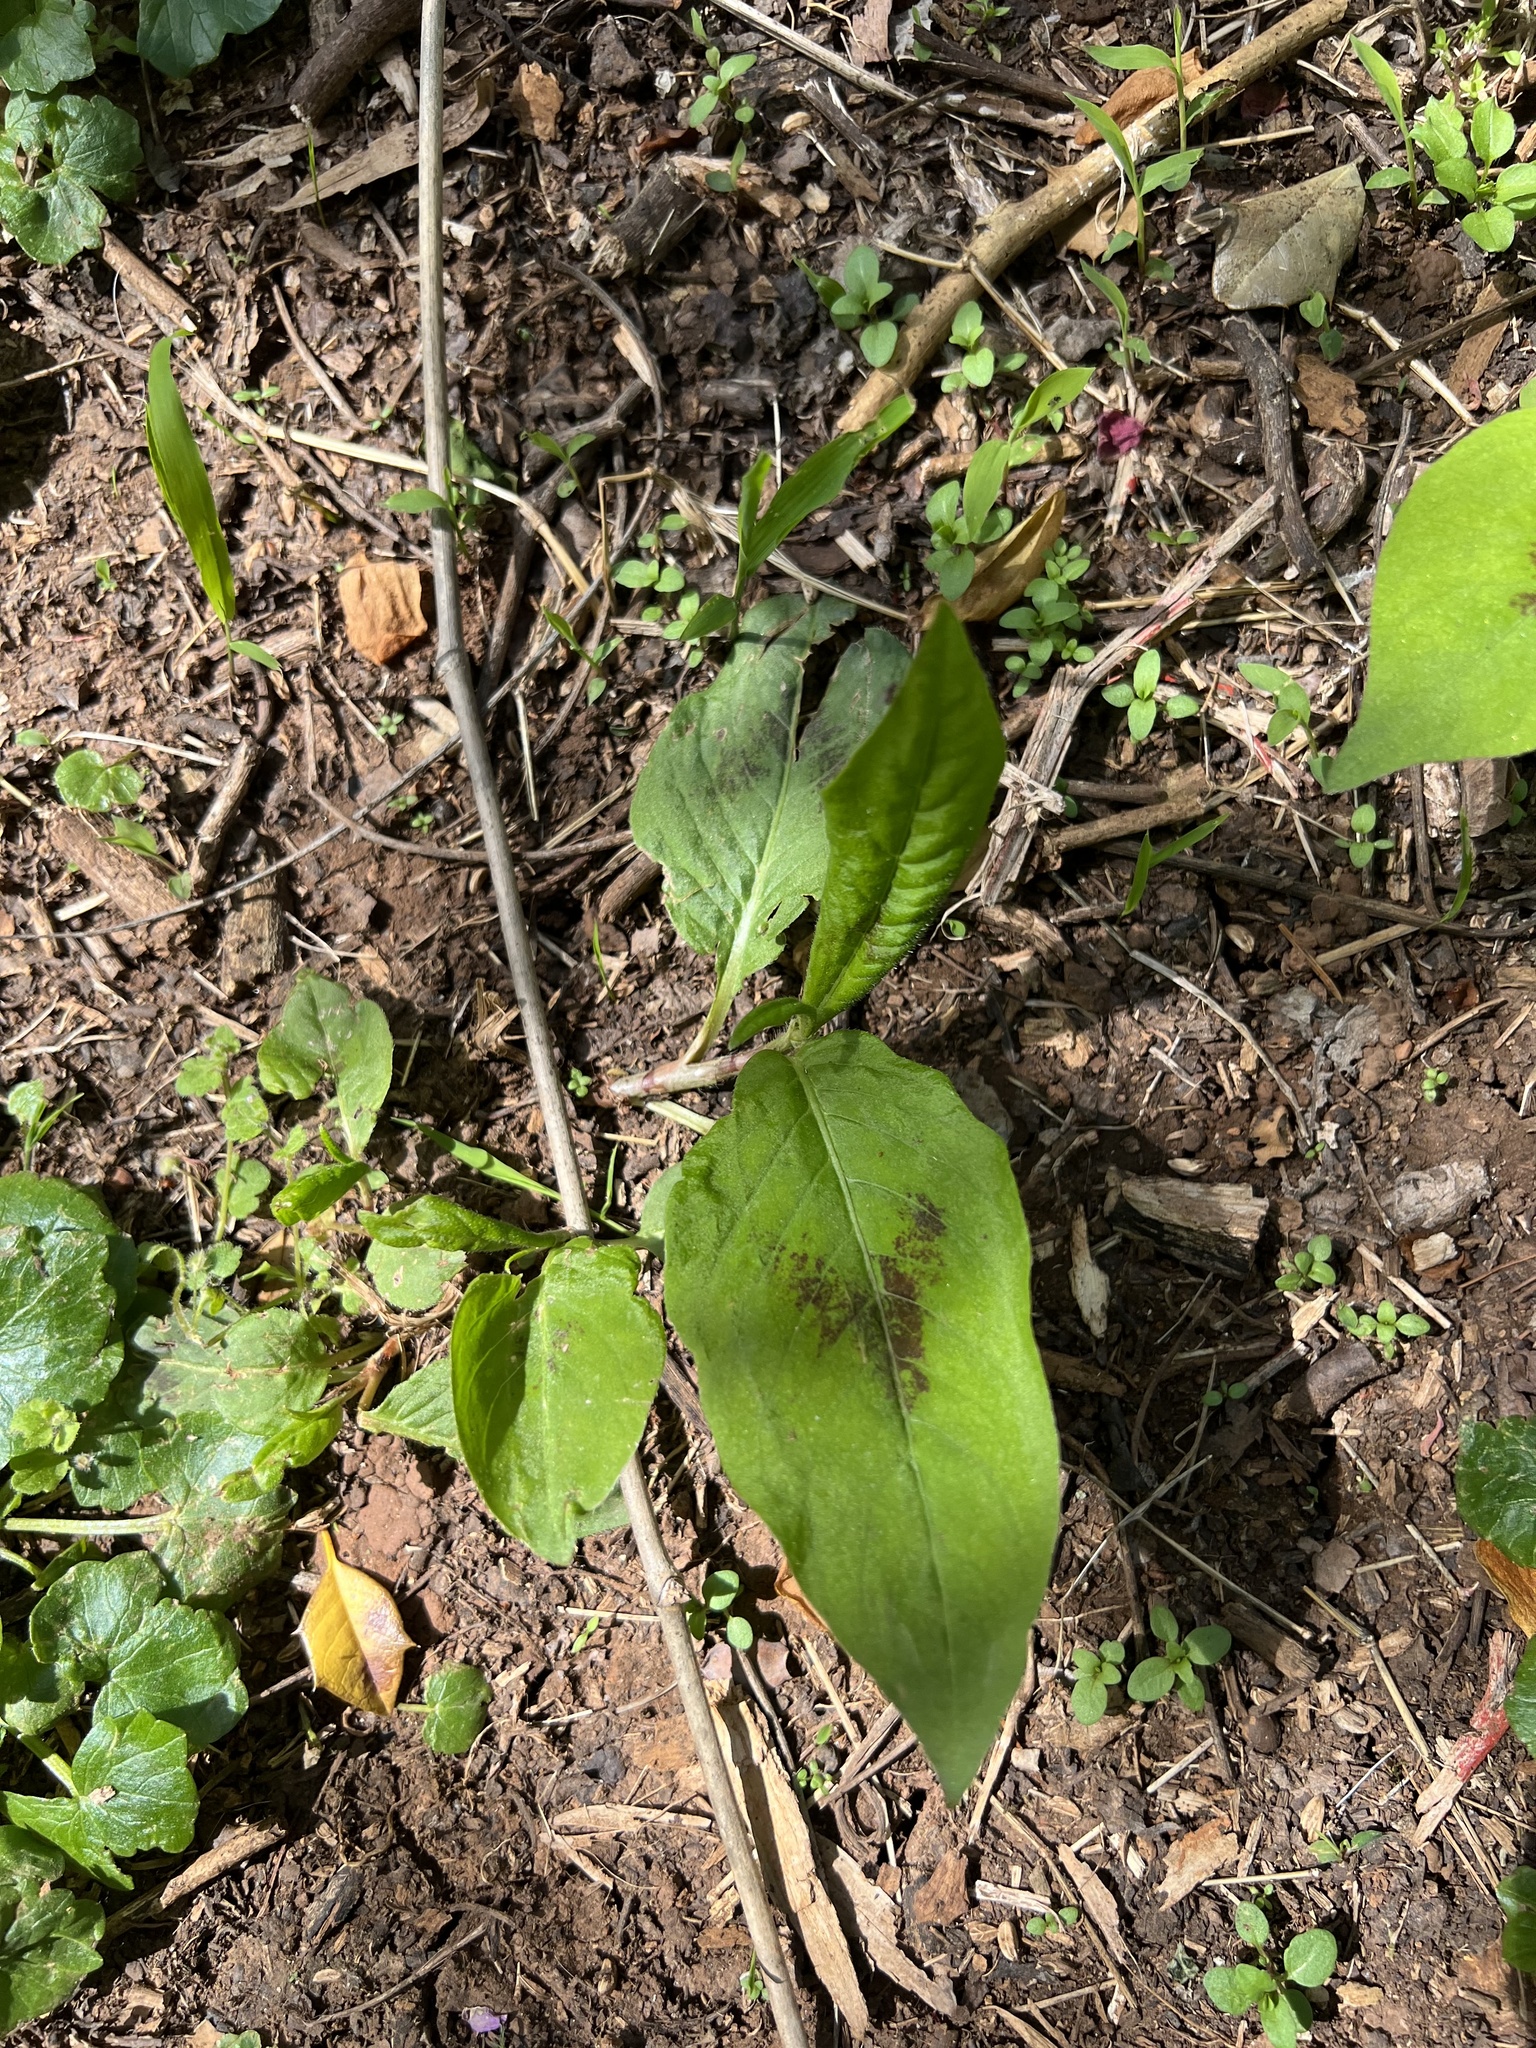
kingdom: Plantae
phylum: Tracheophyta
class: Magnoliopsida
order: Caryophyllales
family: Polygonaceae
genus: Persicaria
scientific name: Persicaria virginiana
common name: Jumpseed
